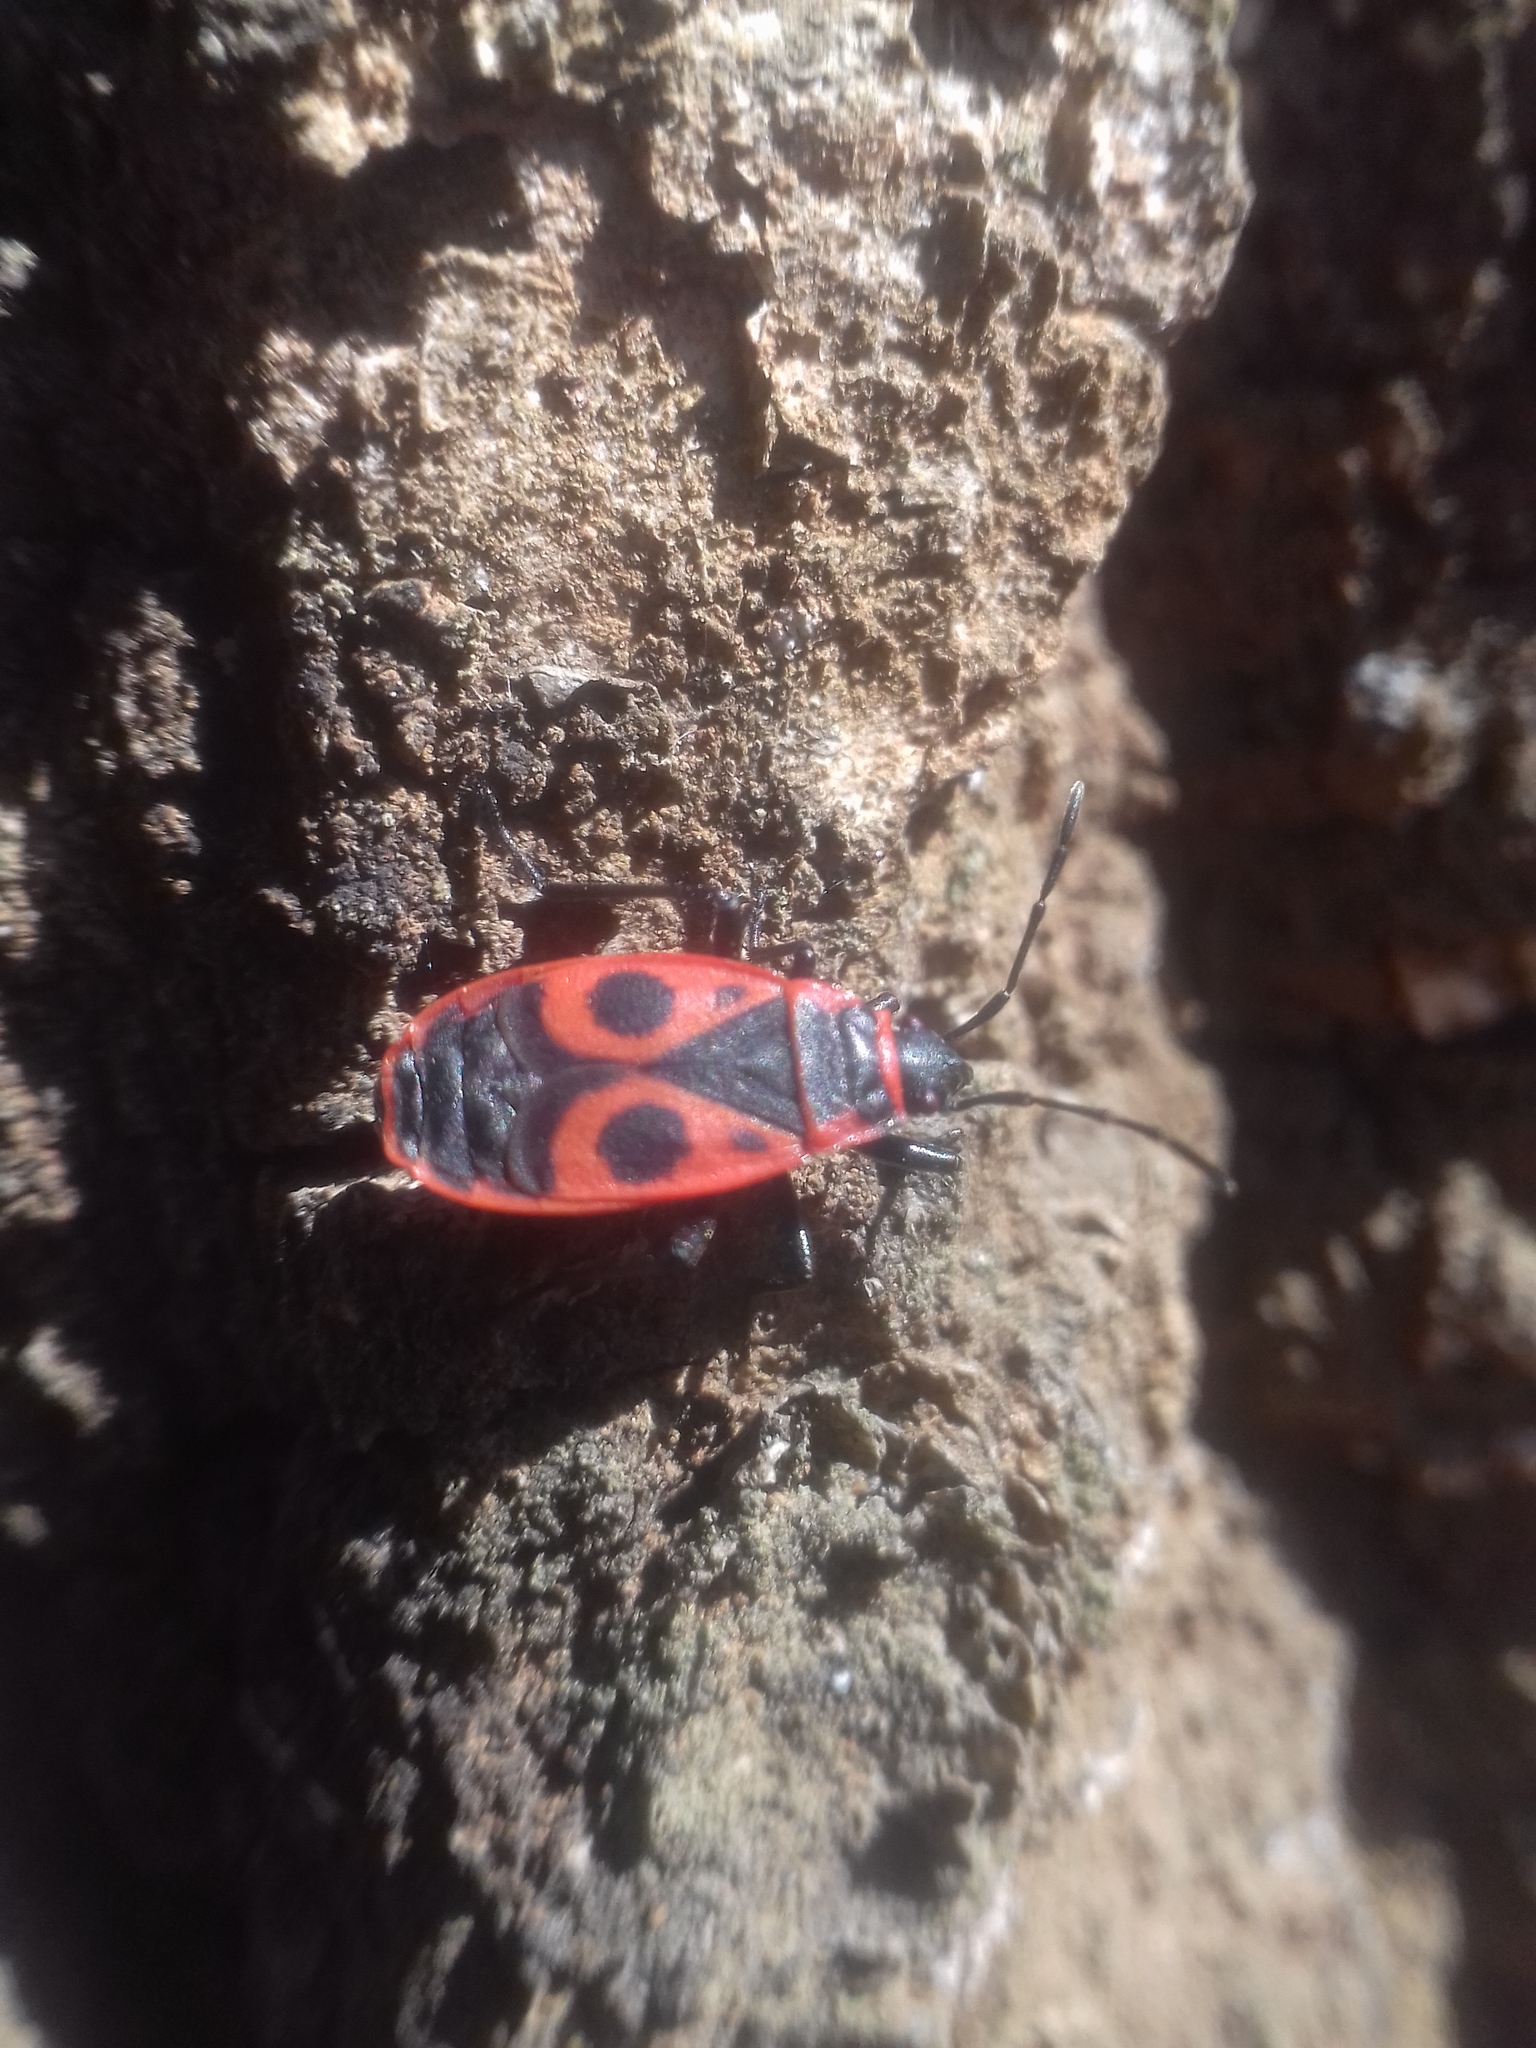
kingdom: Animalia
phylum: Arthropoda
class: Insecta
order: Hemiptera
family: Pyrrhocoridae
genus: Pyrrhocoris
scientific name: Pyrrhocoris apterus
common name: Firebug
